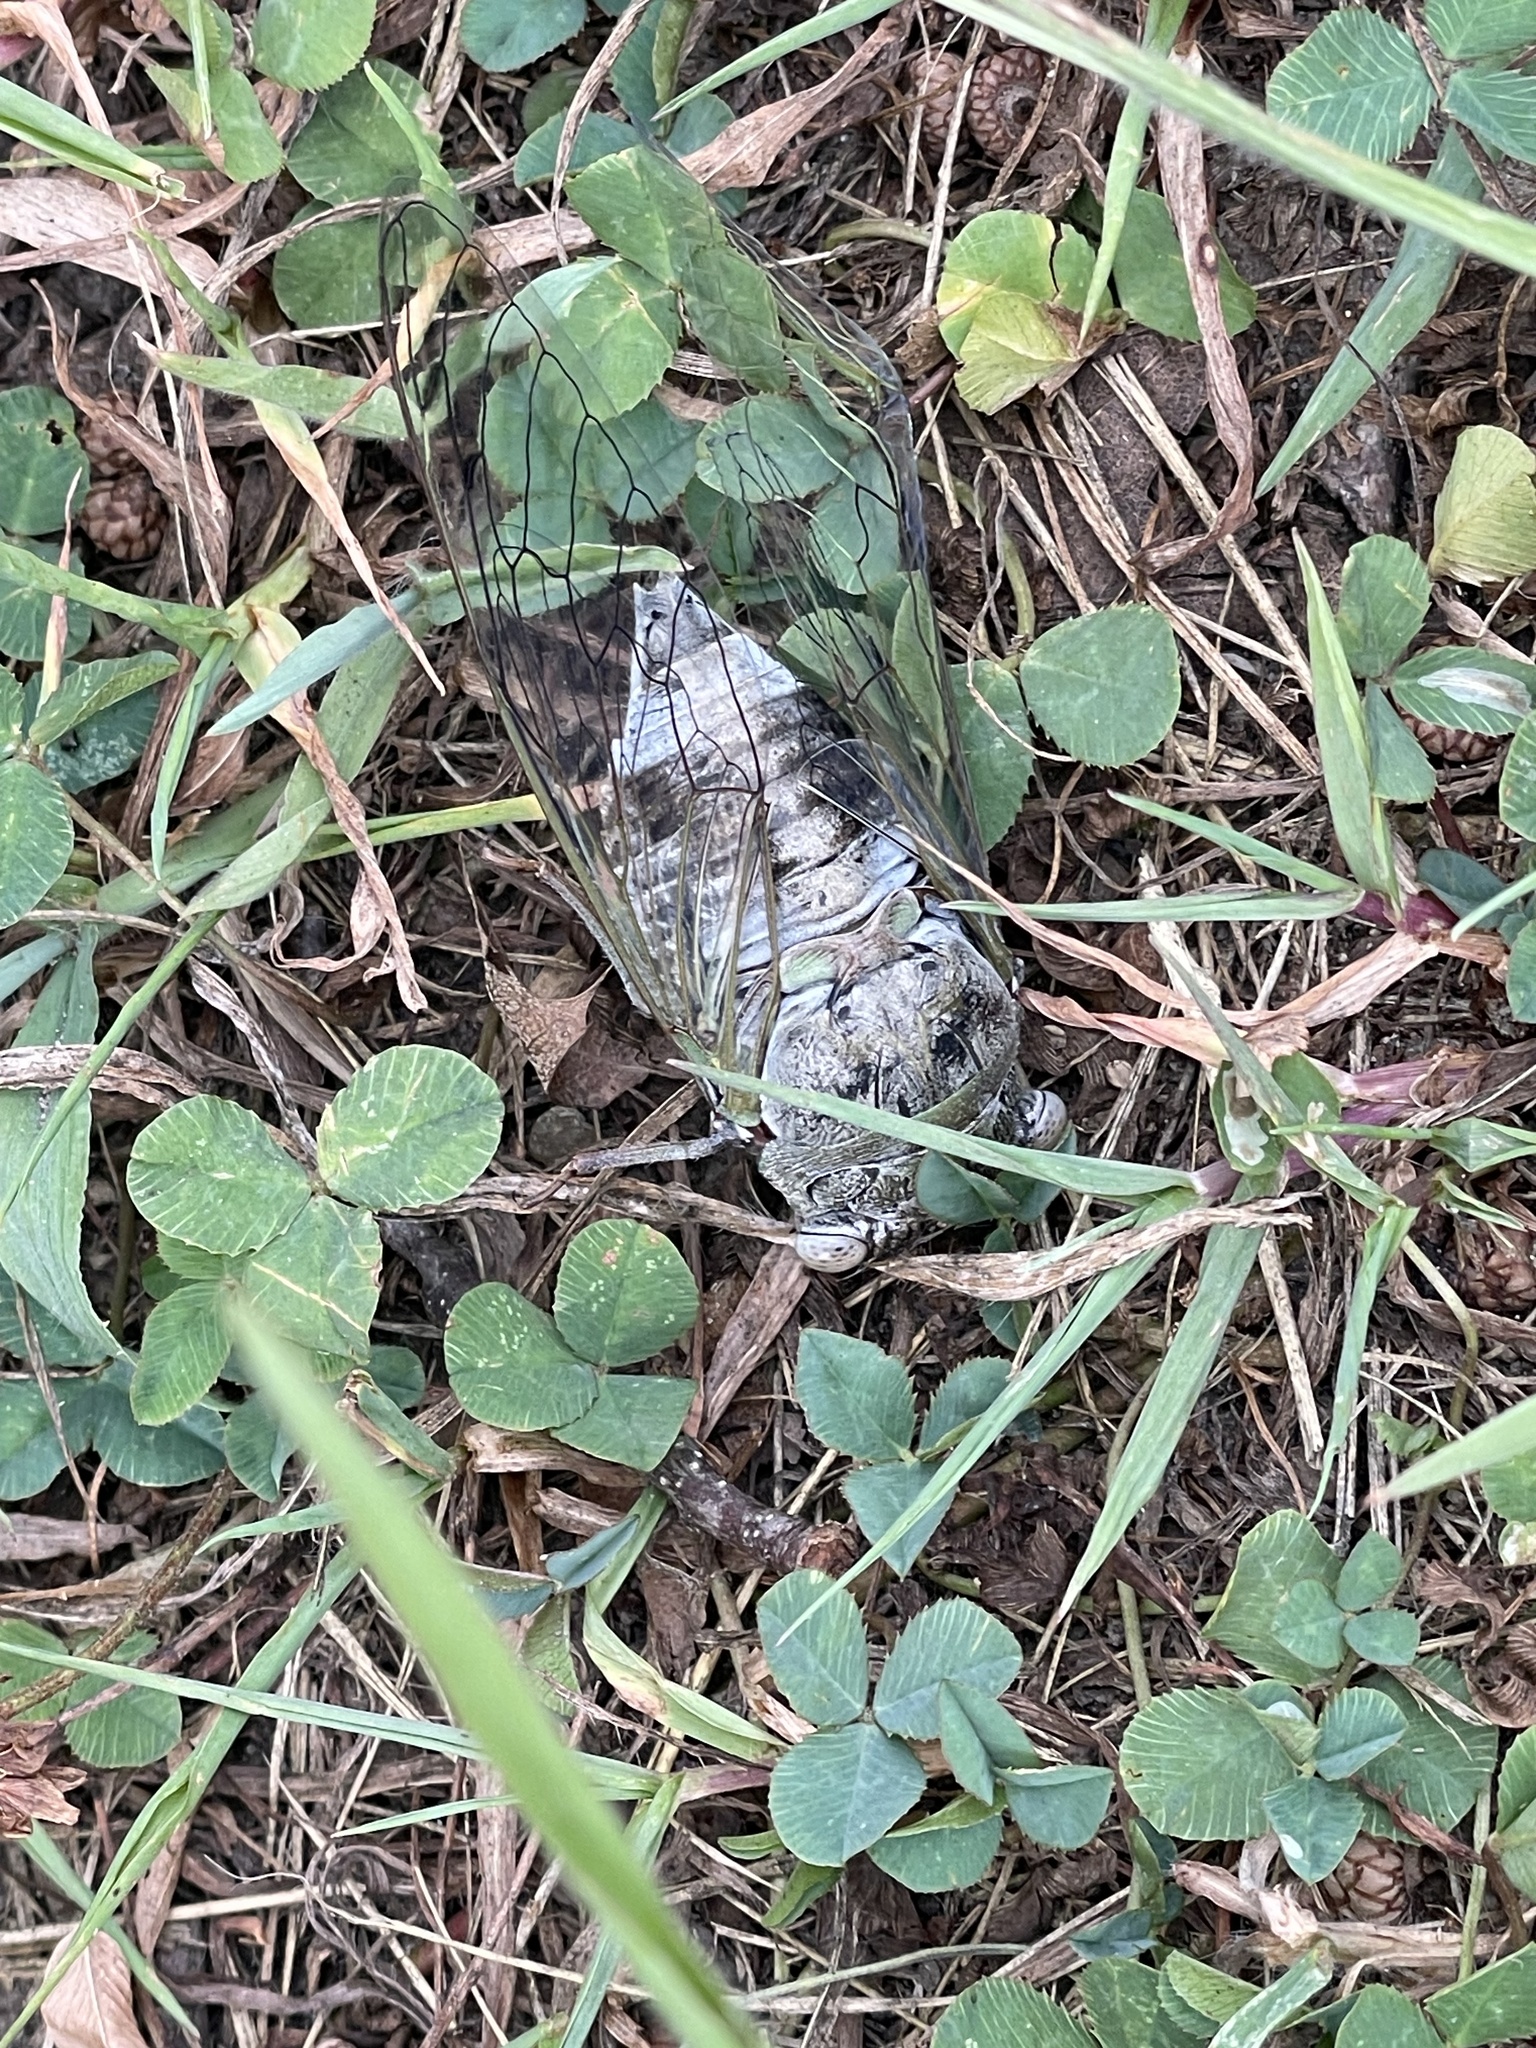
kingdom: Animalia
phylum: Arthropoda
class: Insecta
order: Hemiptera
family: Cicadidae
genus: Diceroprocta
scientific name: Diceroprocta grossa
